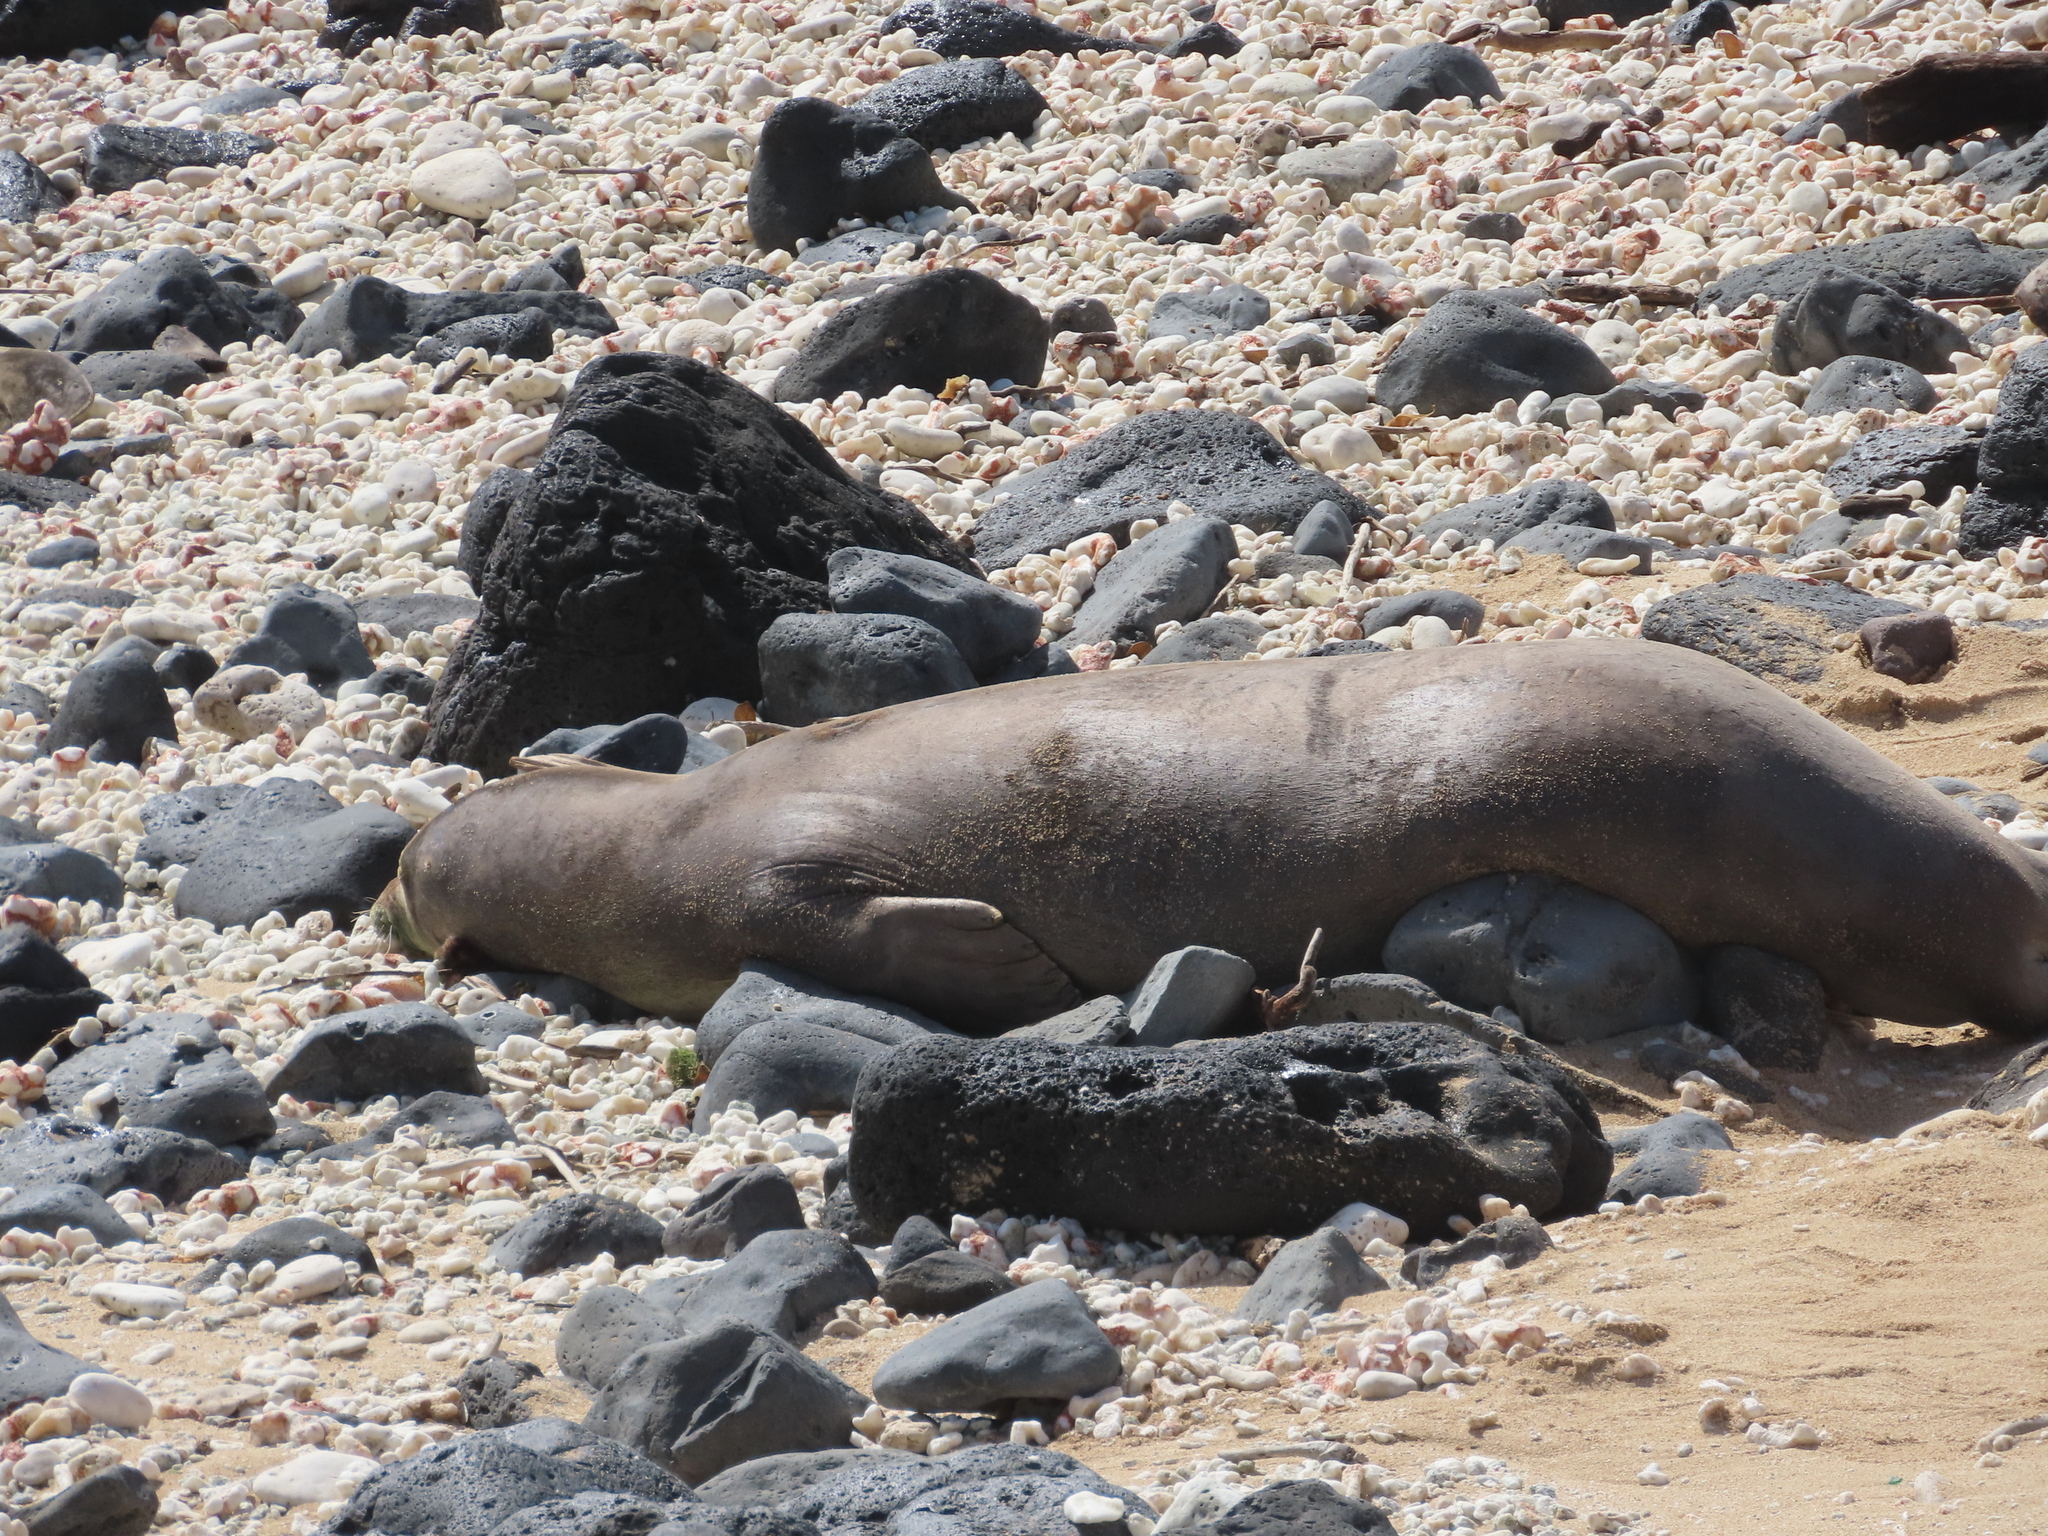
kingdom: Animalia
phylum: Chordata
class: Mammalia
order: Carnivora
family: Phocidae
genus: Neomonachus
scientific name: Neomonachus schauinslandi
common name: Hawaiian monk seal
